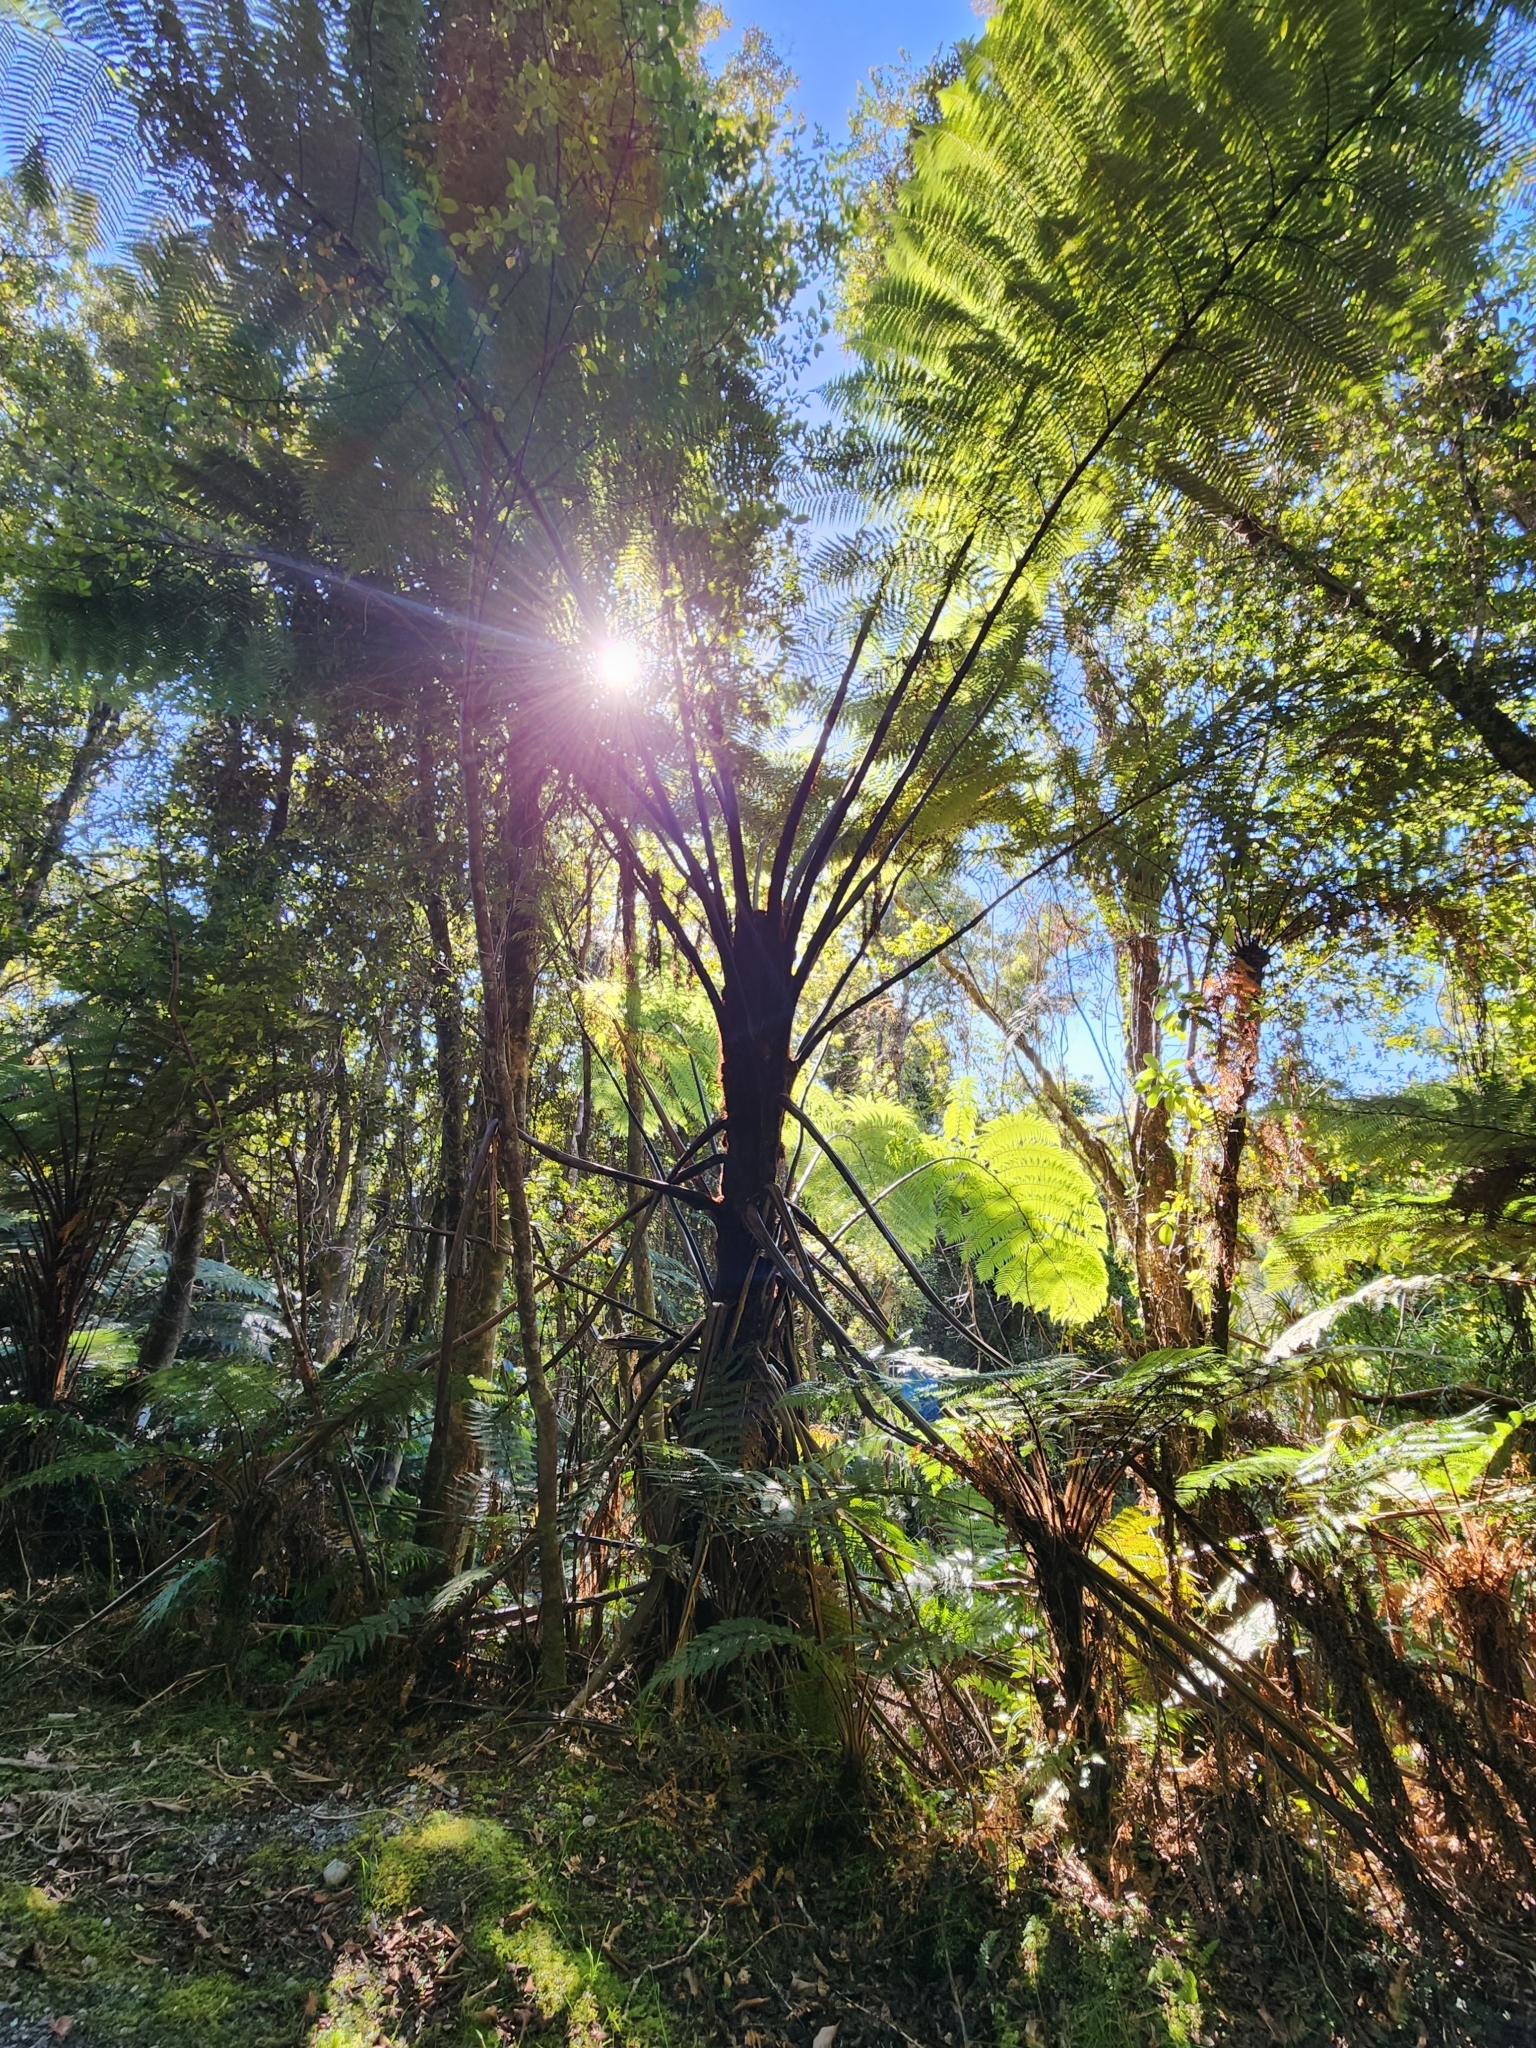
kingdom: Plantae
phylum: Tracheophyta
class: Polypodiopsida
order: Cyatheales
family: Cyatheaceae
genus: Sphaeropteris
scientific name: Sphaeropteris medullaris
